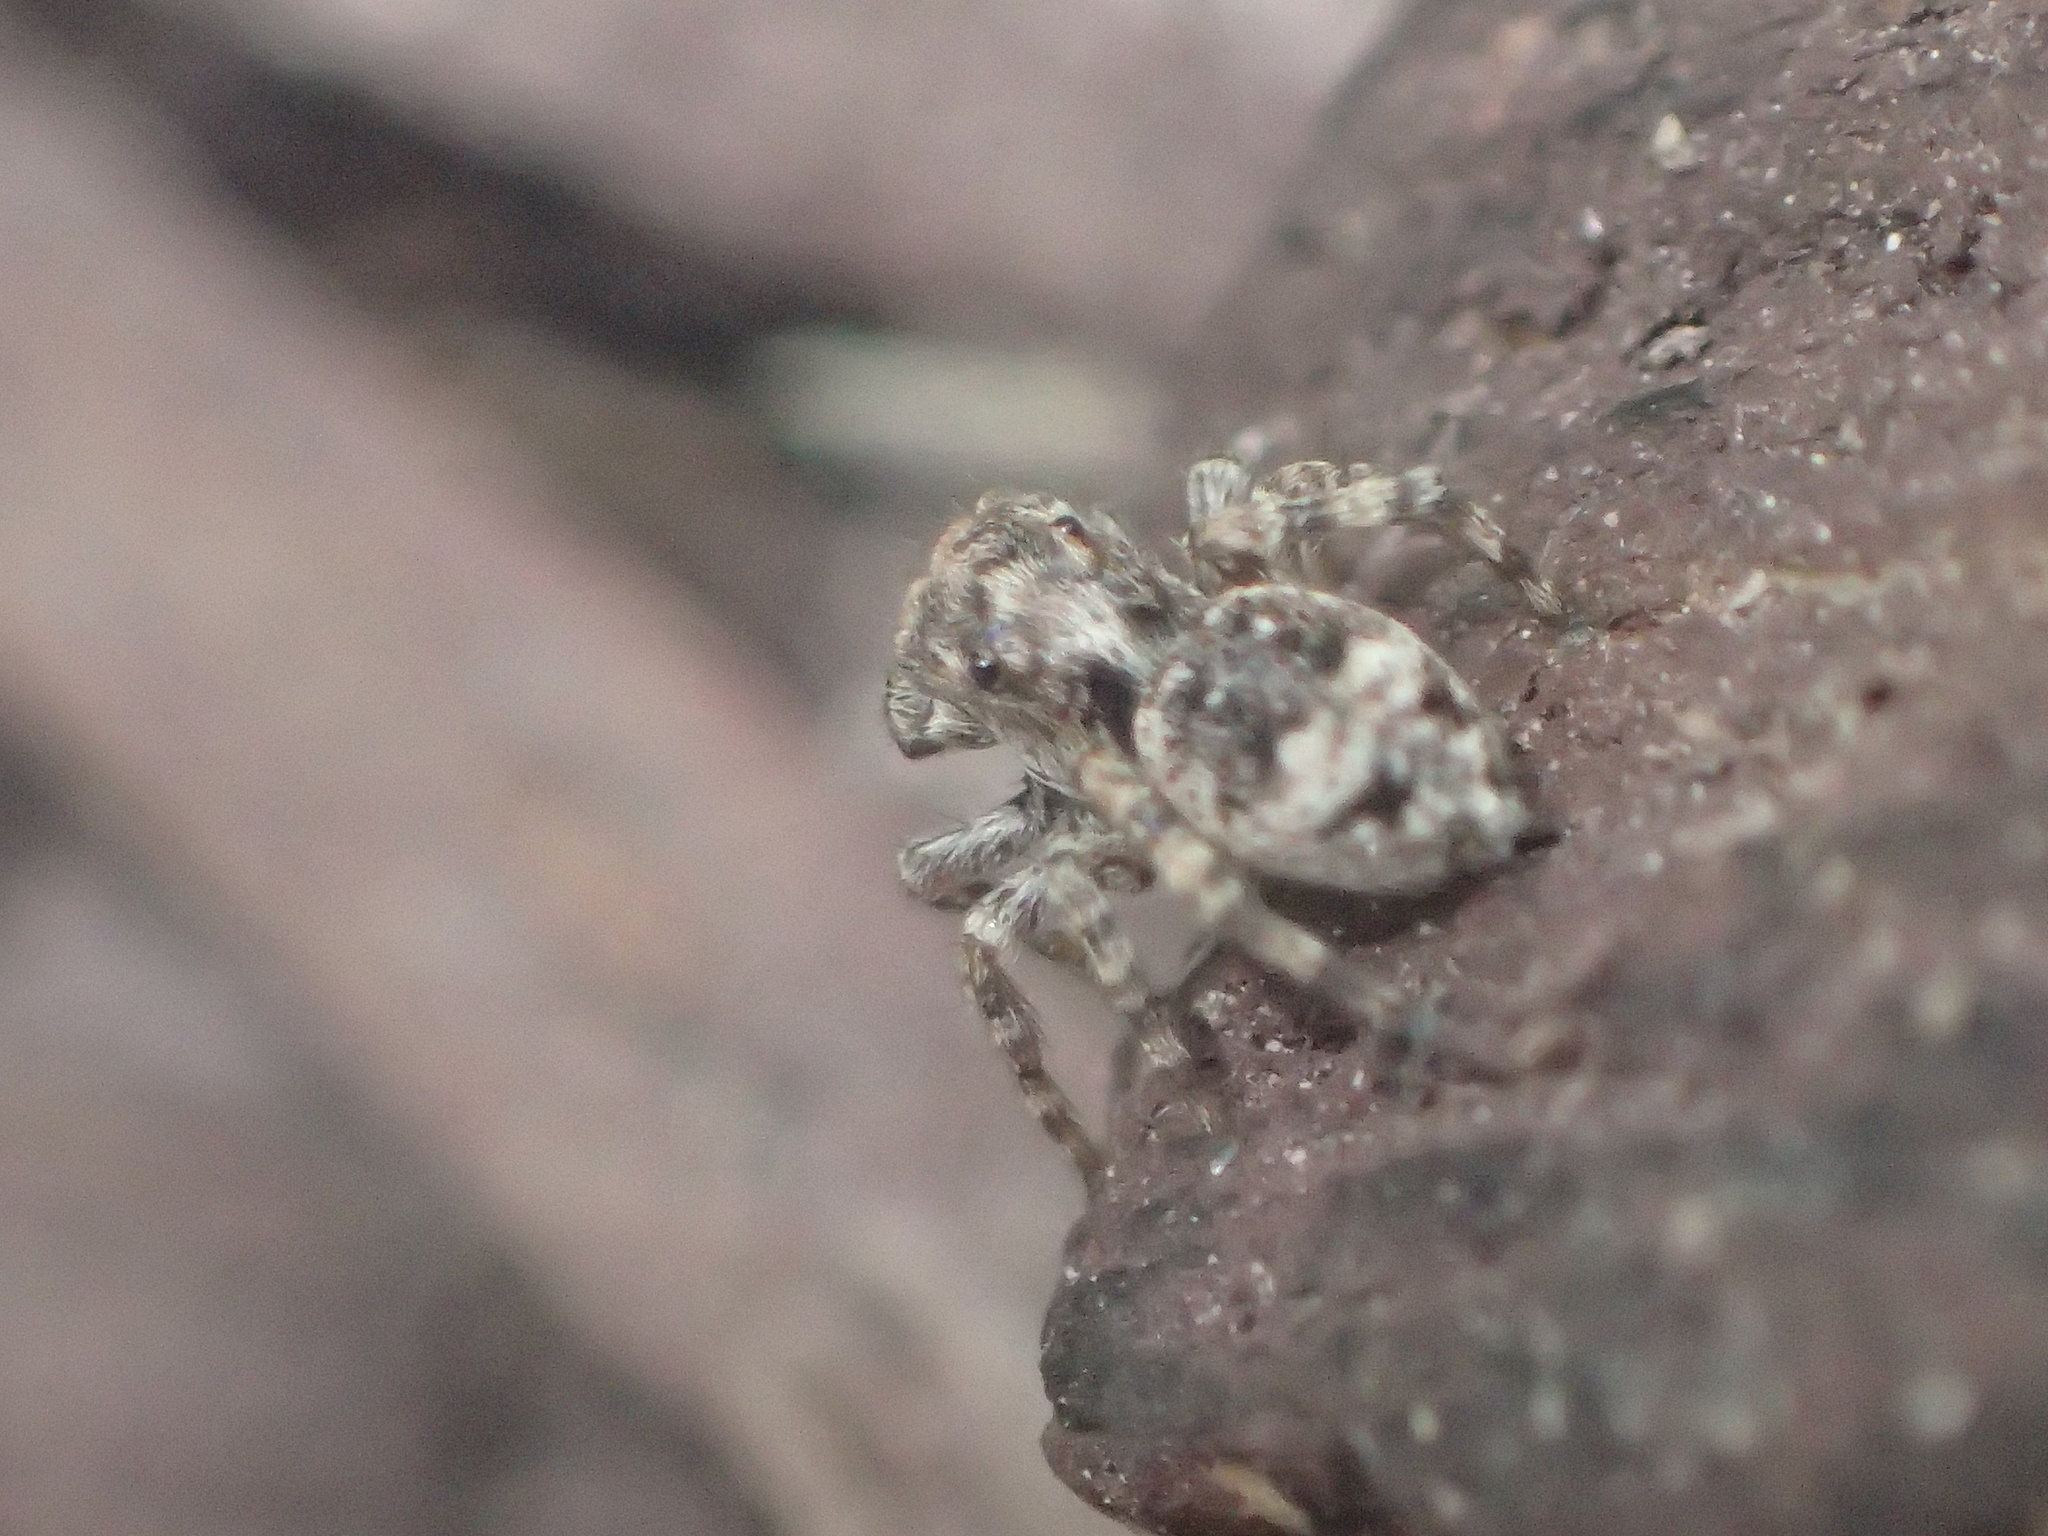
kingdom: Animalia
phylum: Arthropoda
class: Arachnida
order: Araneae
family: Salticidae
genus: Attulus
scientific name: Attulus fasciger
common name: Asiatic wall jumping spider
